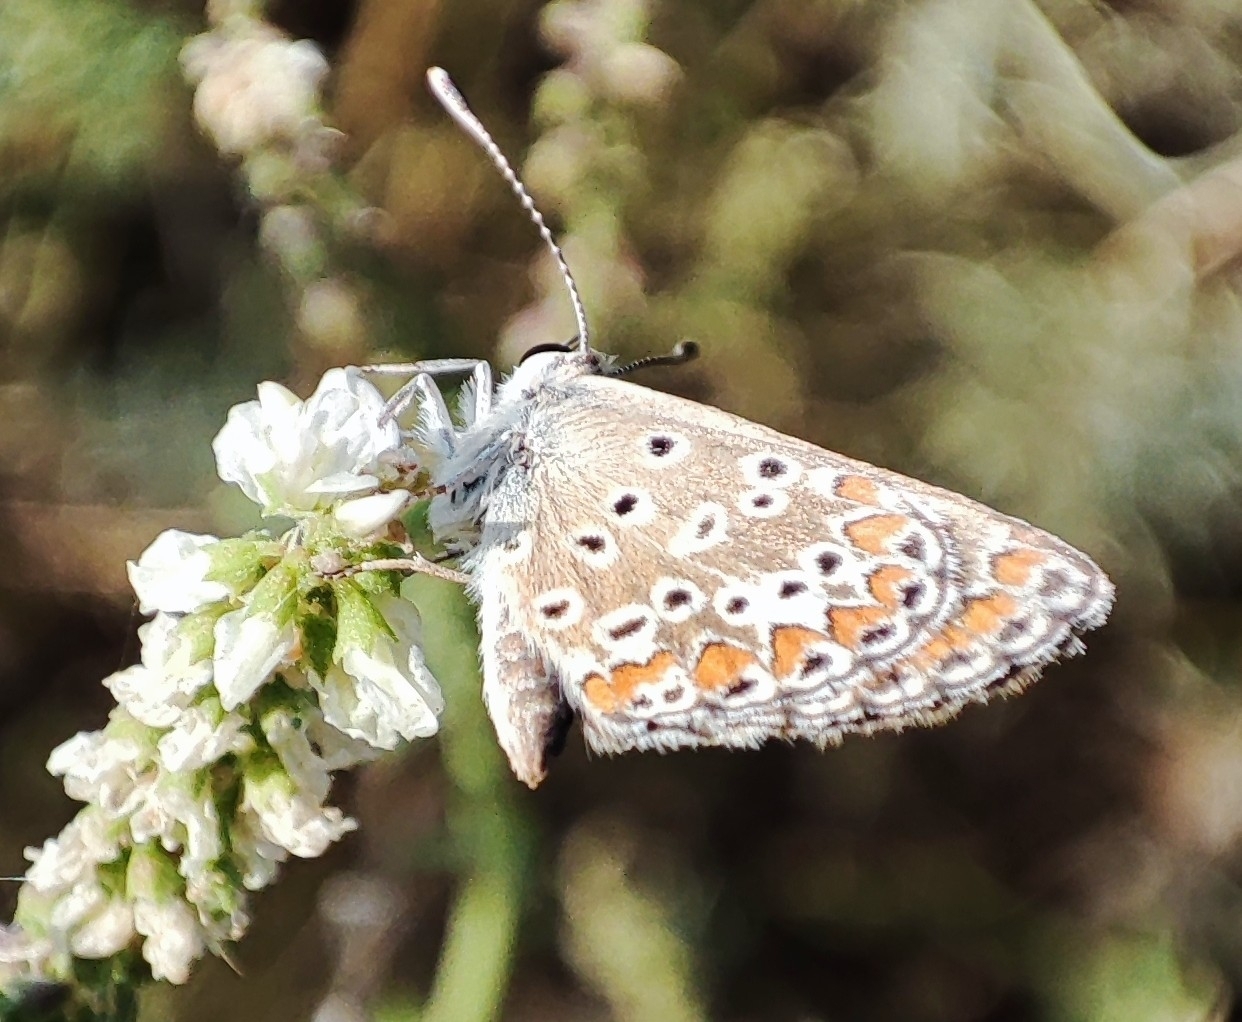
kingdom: Animalia
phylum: Arthropoda
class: Insecta
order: Lepidoptera
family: Lycaenidae
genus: Aricia
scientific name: Aricia agestis
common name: Brown argus
